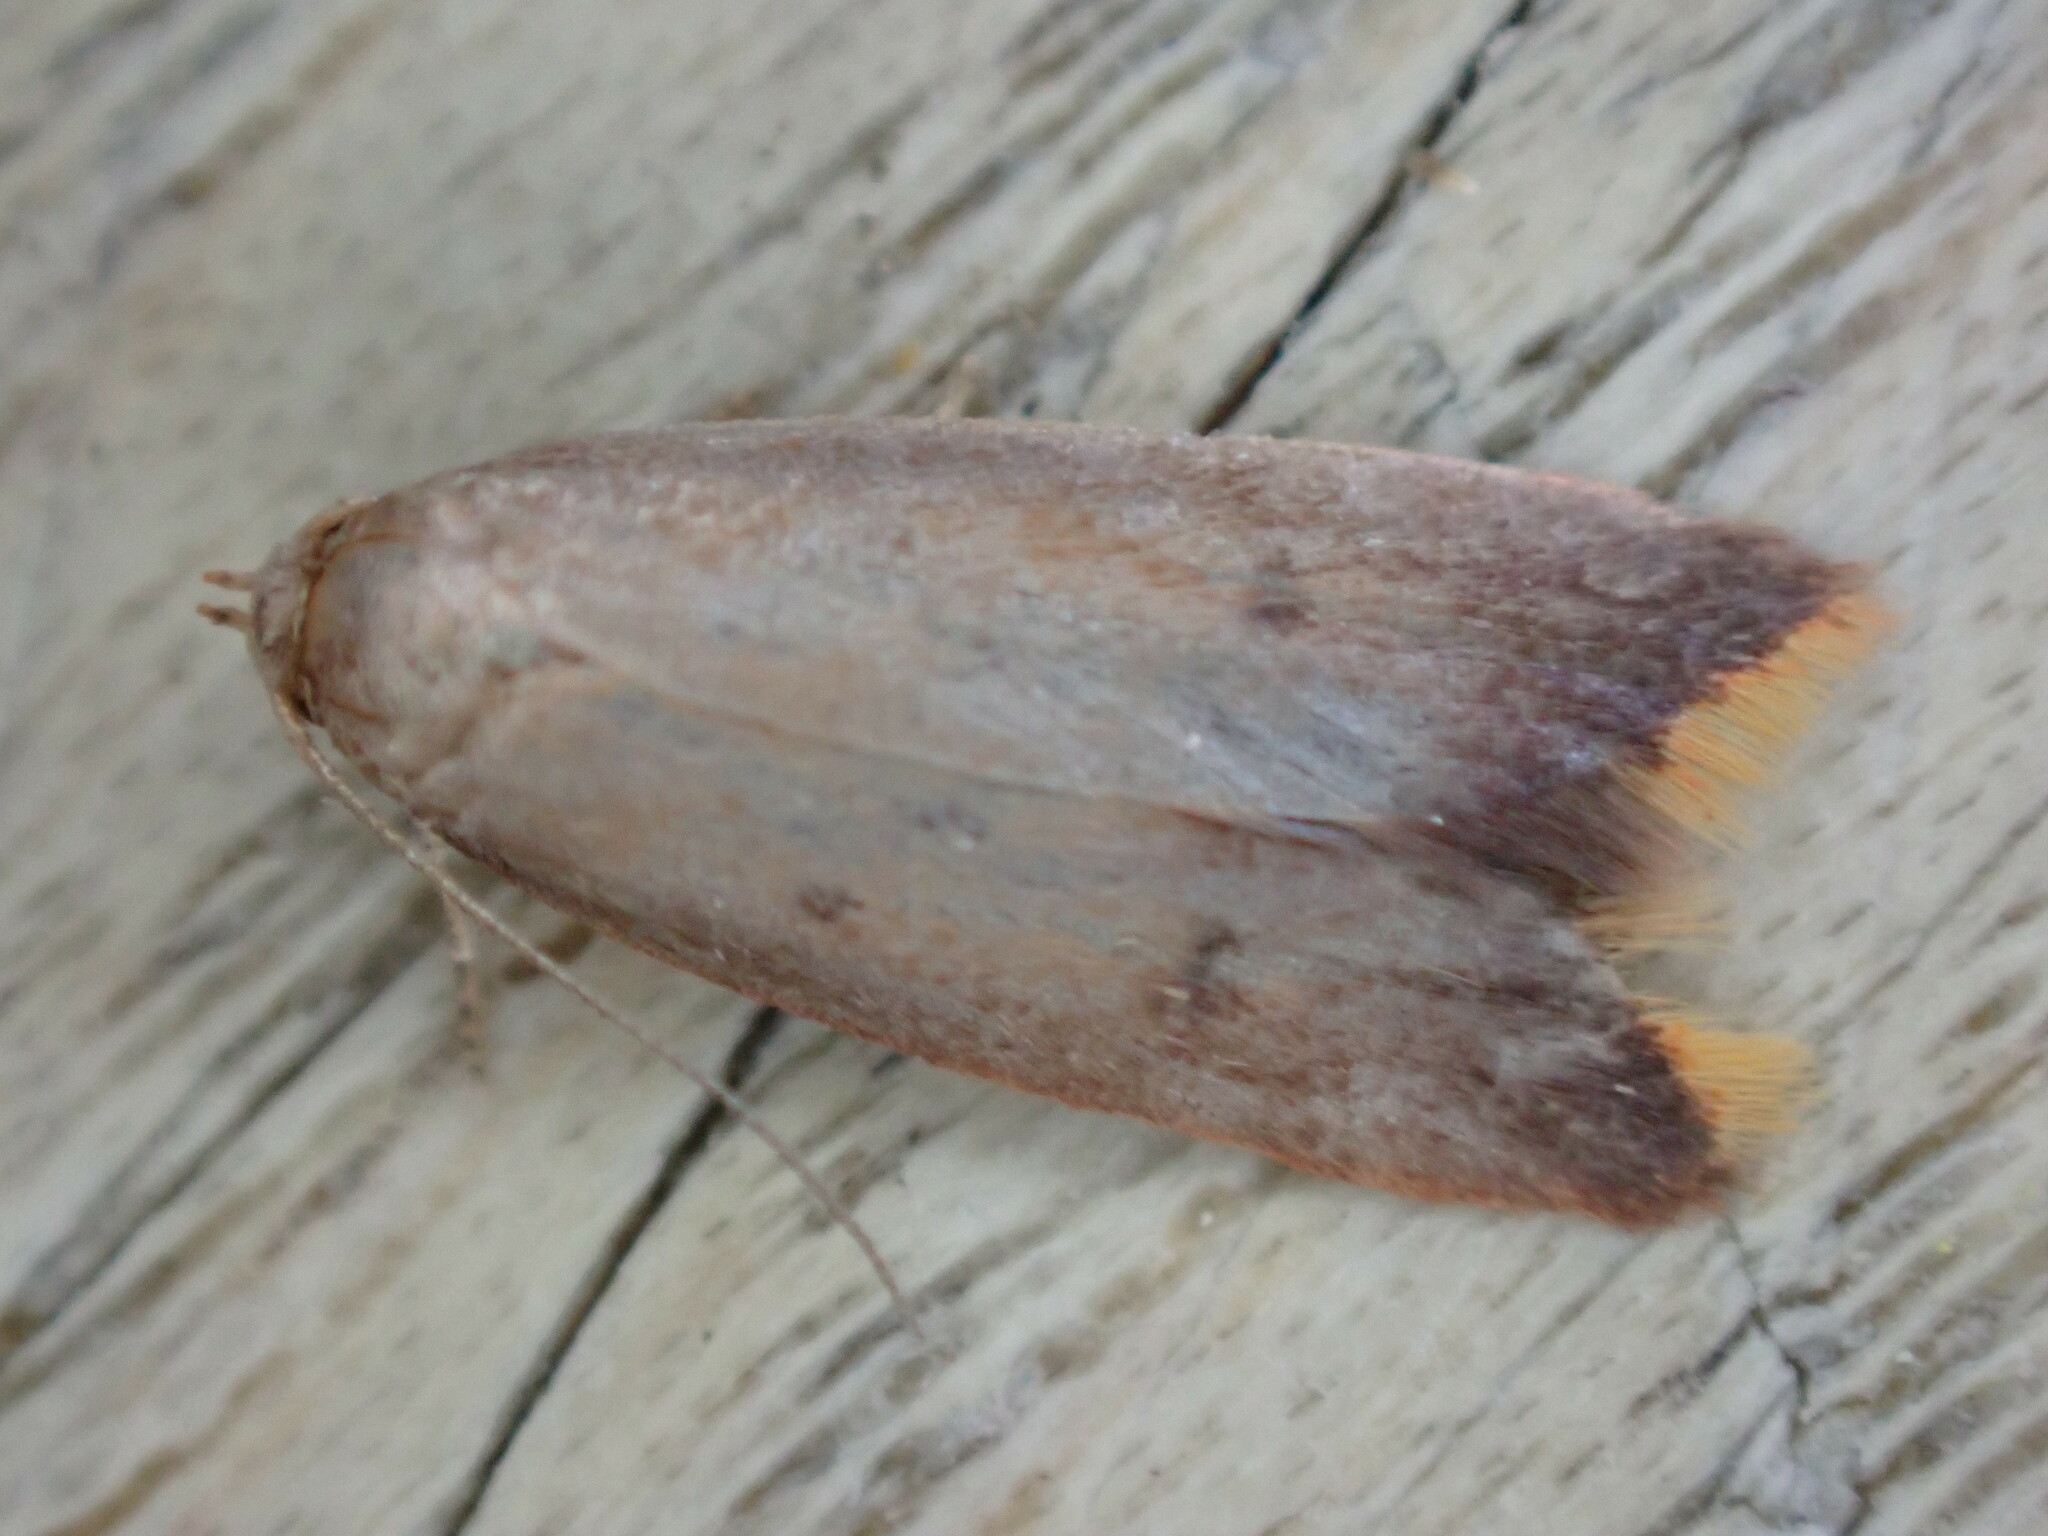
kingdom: Animalia
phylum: Arthropoda
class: Insecta
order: Lepidoptera
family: Oecophoridae
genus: Tachystola
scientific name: Tachystola acroxantha
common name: Ruddy streak
